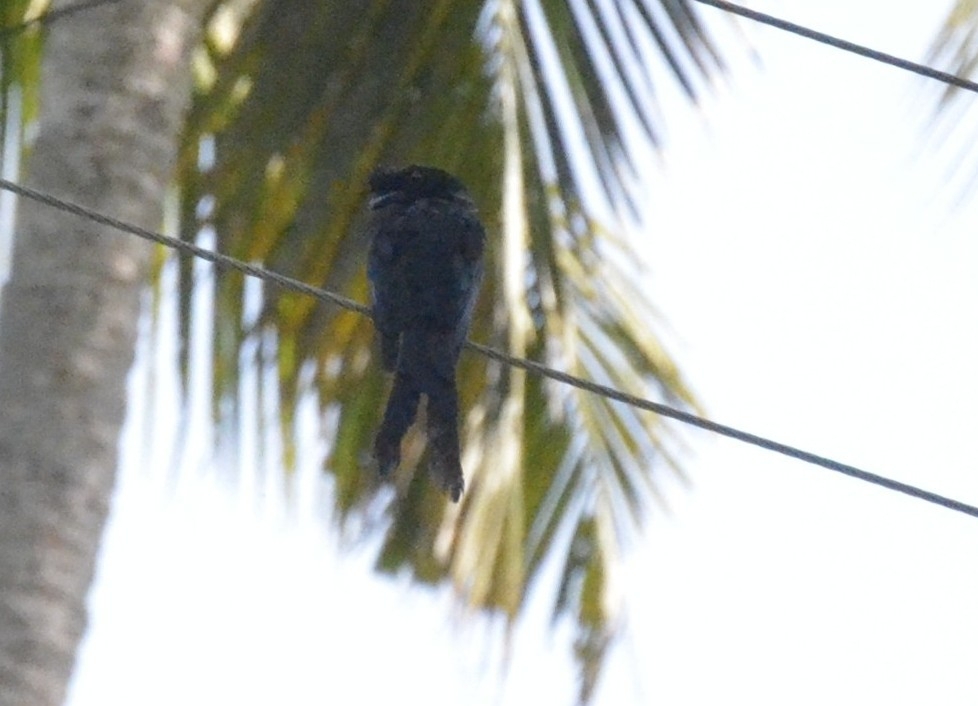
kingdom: Animalia
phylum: Chordata
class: Aves
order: Passeriformes
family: Dicruridae
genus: Dicrurus
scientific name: Dicrurus paradiseus
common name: Greater racket-tailed drongo
